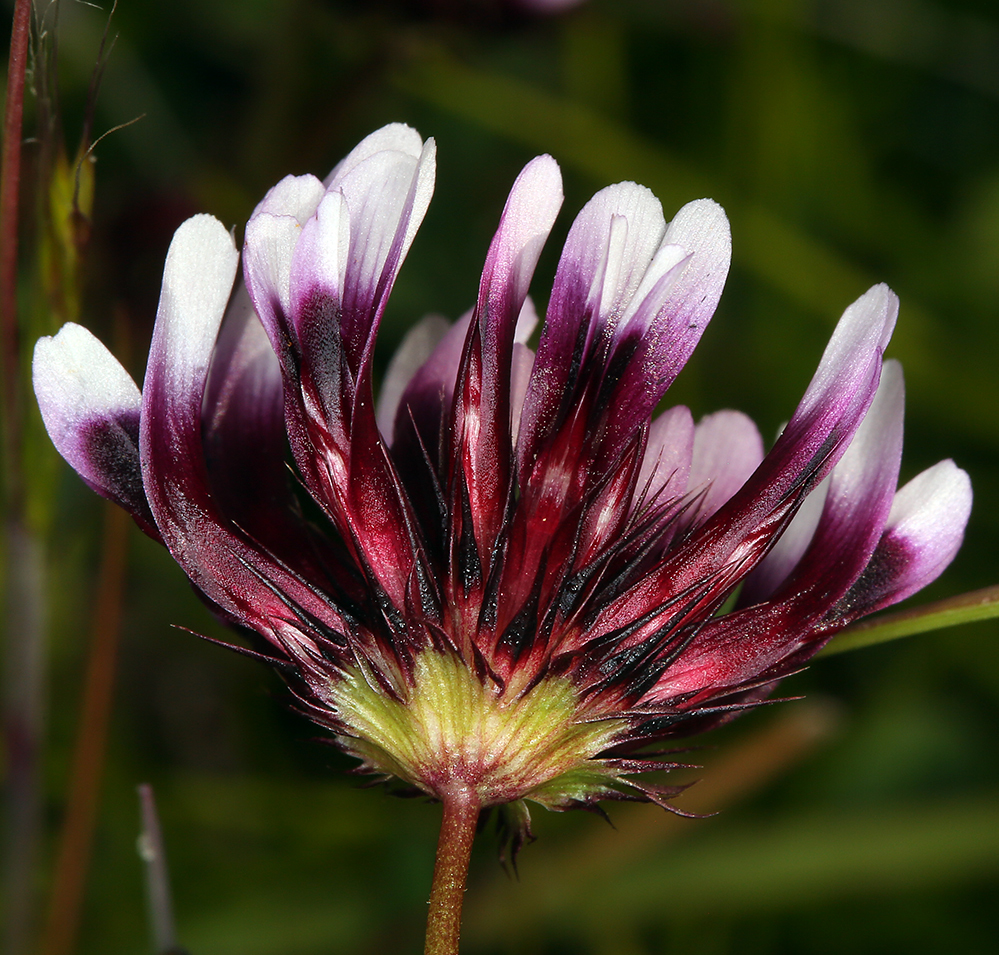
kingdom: Plantae
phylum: Tracheophyta
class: Magnoliopsida
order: Fabales
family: Fabaceae
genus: Trifolium
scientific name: Trifolium variegatum
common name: Whitetip clover
